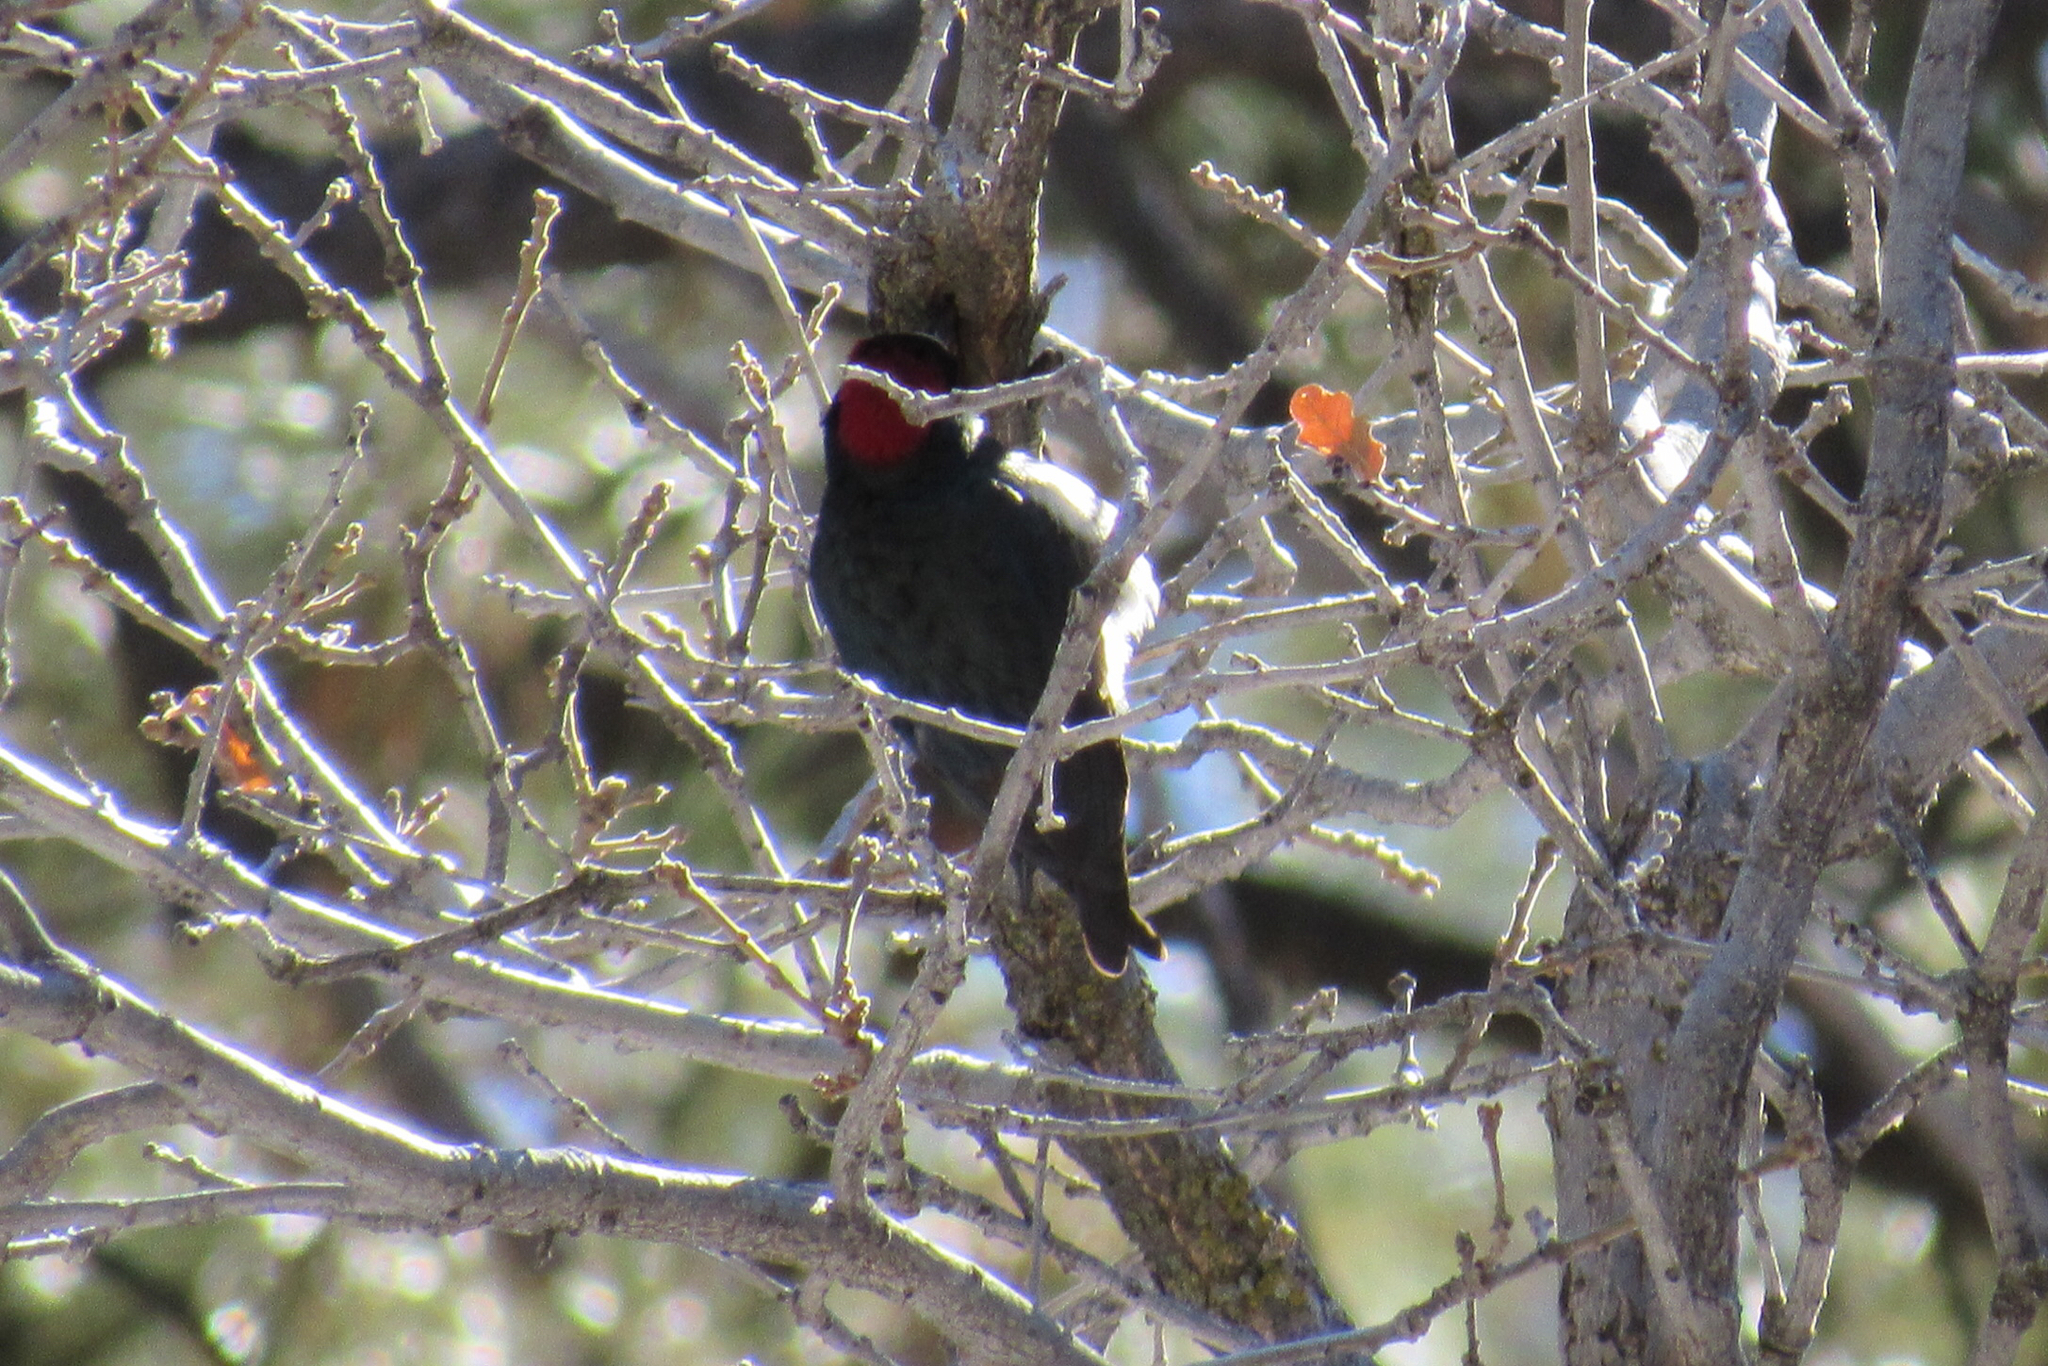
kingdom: Animalia
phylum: Chordata
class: Aves
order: Piciformes
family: Picidae
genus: Melanerpes
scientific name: Melanerpes formicivorus
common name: Acorn woodpecker
